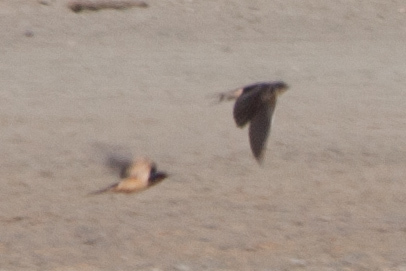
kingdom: Animalia
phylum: Chordata
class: Aves
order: Passeriformes
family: Hirundinidae
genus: Hirundo
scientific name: Hirundo rustica
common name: Barn swallow
